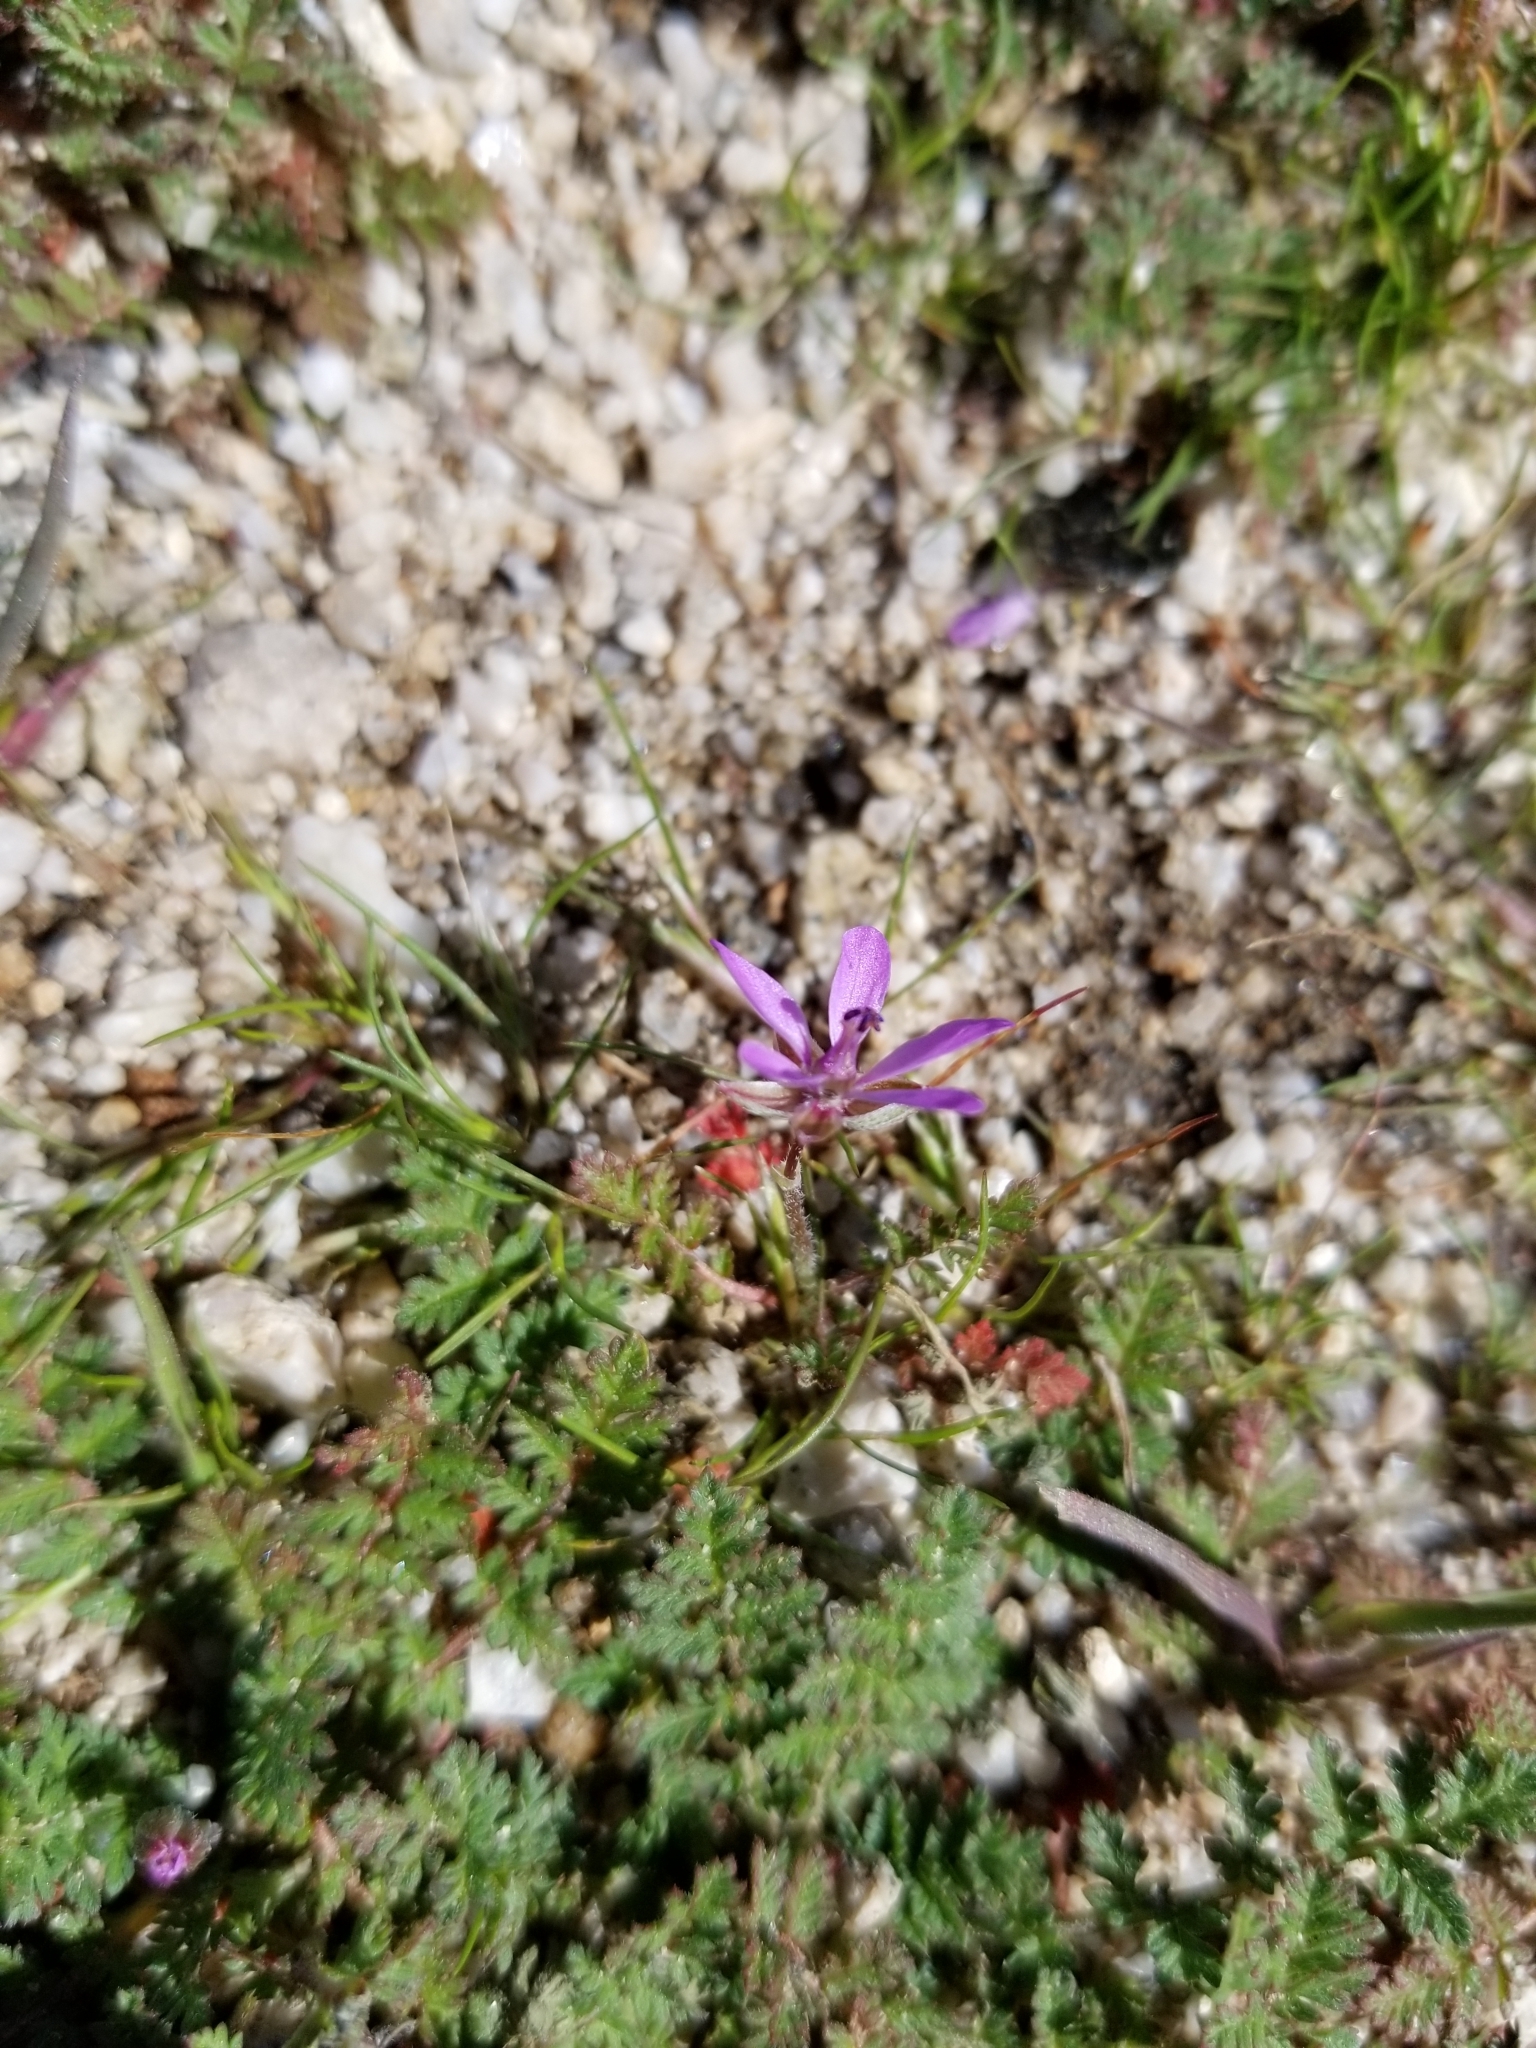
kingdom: Plantae
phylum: Tracheophyta
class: Magnoliopsida
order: Geraniales
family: Geraniaceae
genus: Erodium
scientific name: Erodium cicutarium
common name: Common stork's-bill
